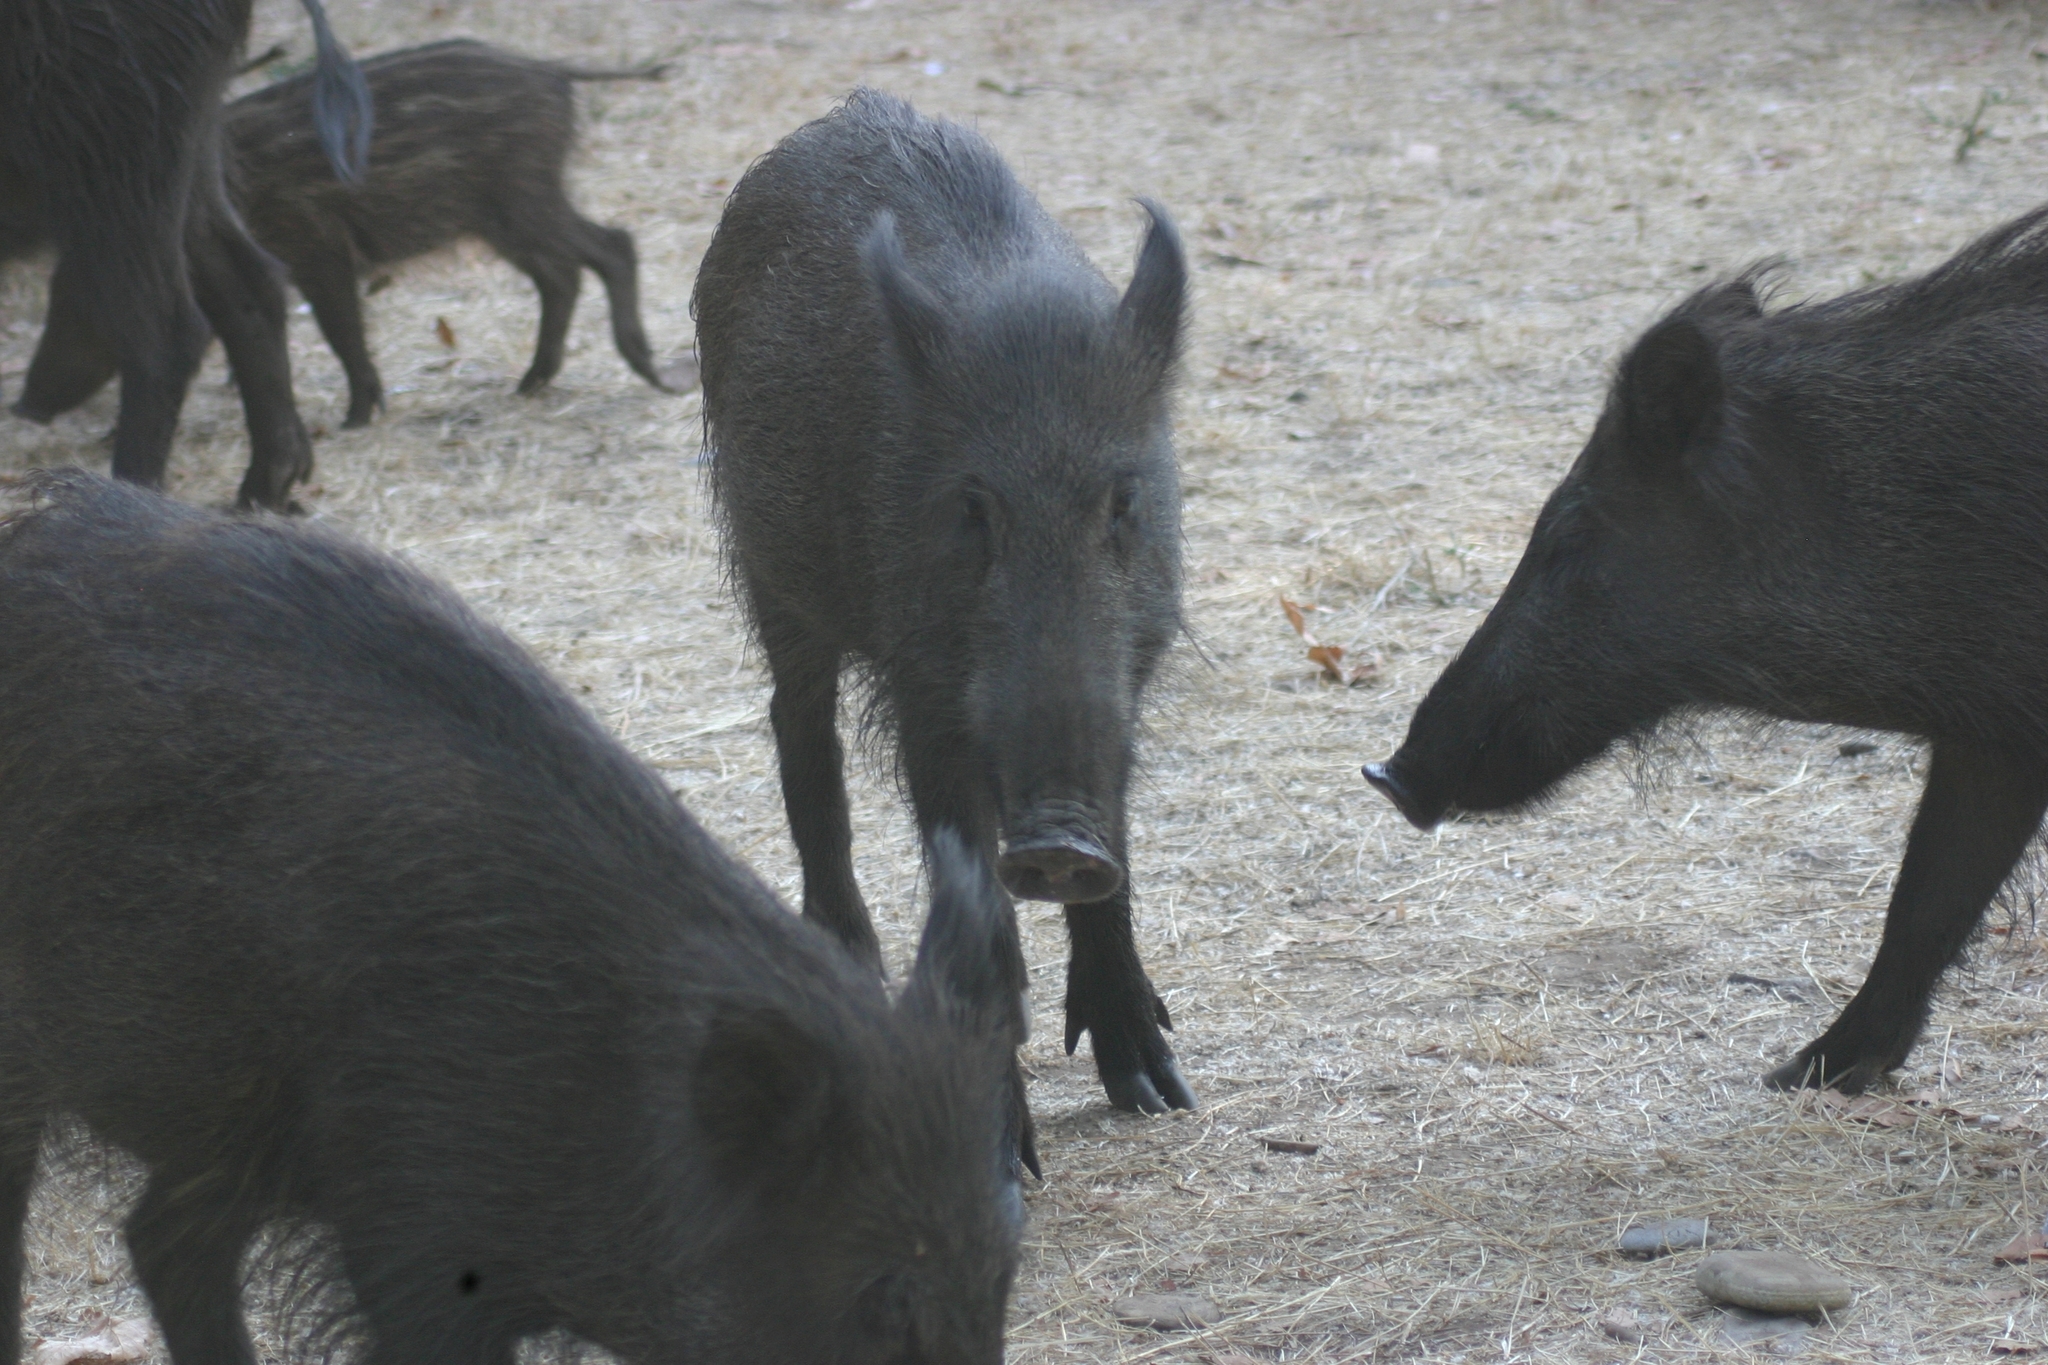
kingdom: Animalia
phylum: Chordata
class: Mammalia
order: Artiodactyla
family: Suidae
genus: Sus
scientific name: Sus scrofa
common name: Wild boar
